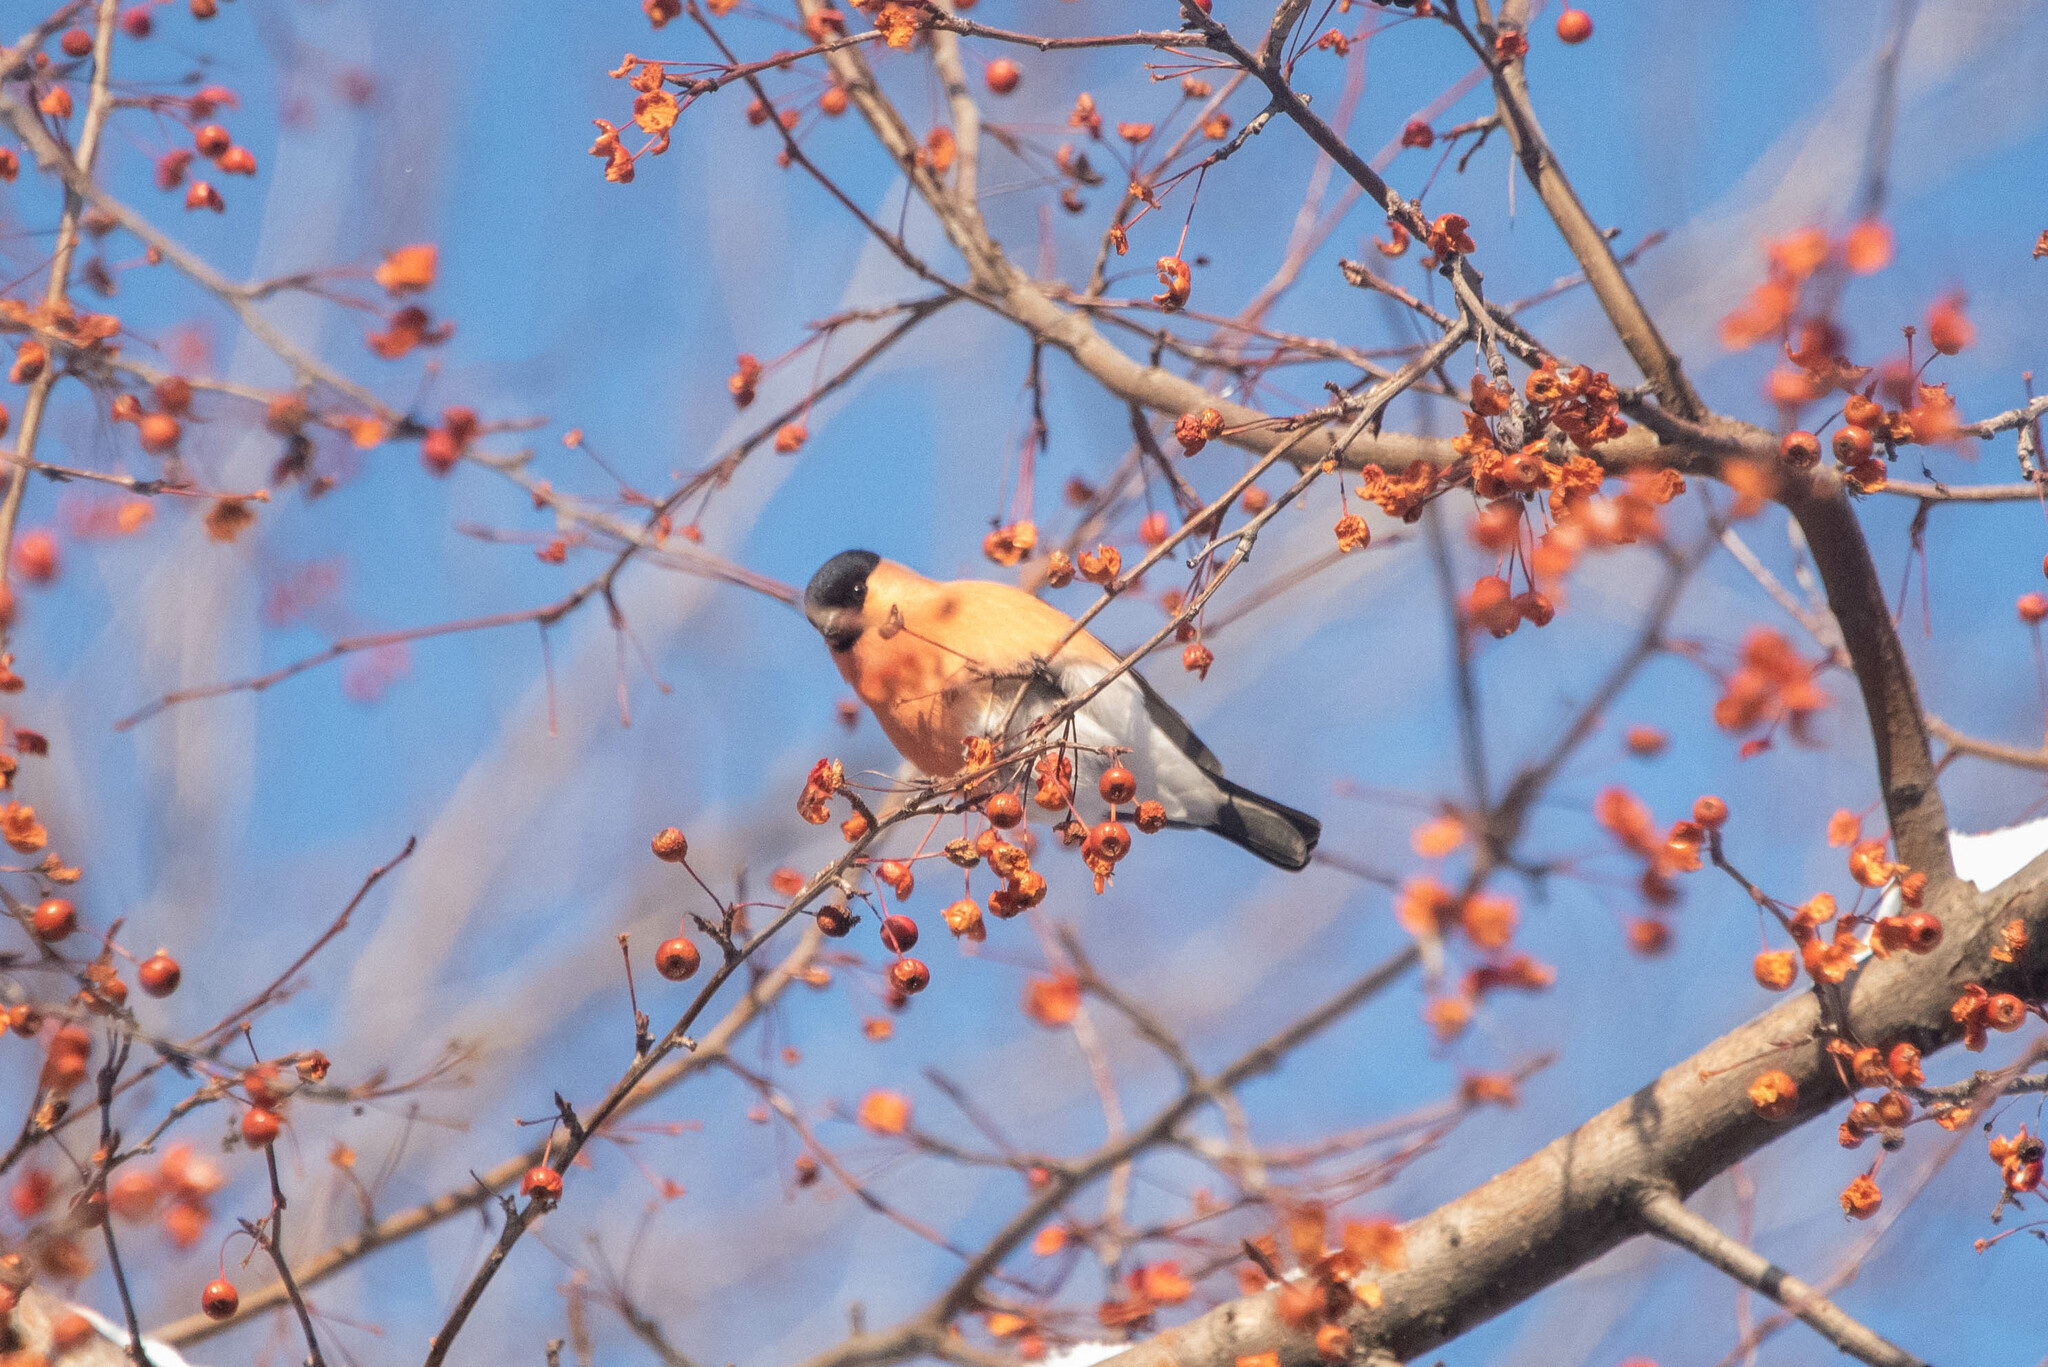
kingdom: Animalia
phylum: Chordata
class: Aves
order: Passeriformes
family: Fringillidae
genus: Pyrrhula
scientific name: Pyrrhula pyrrhula
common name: Eurasian bullfinch
